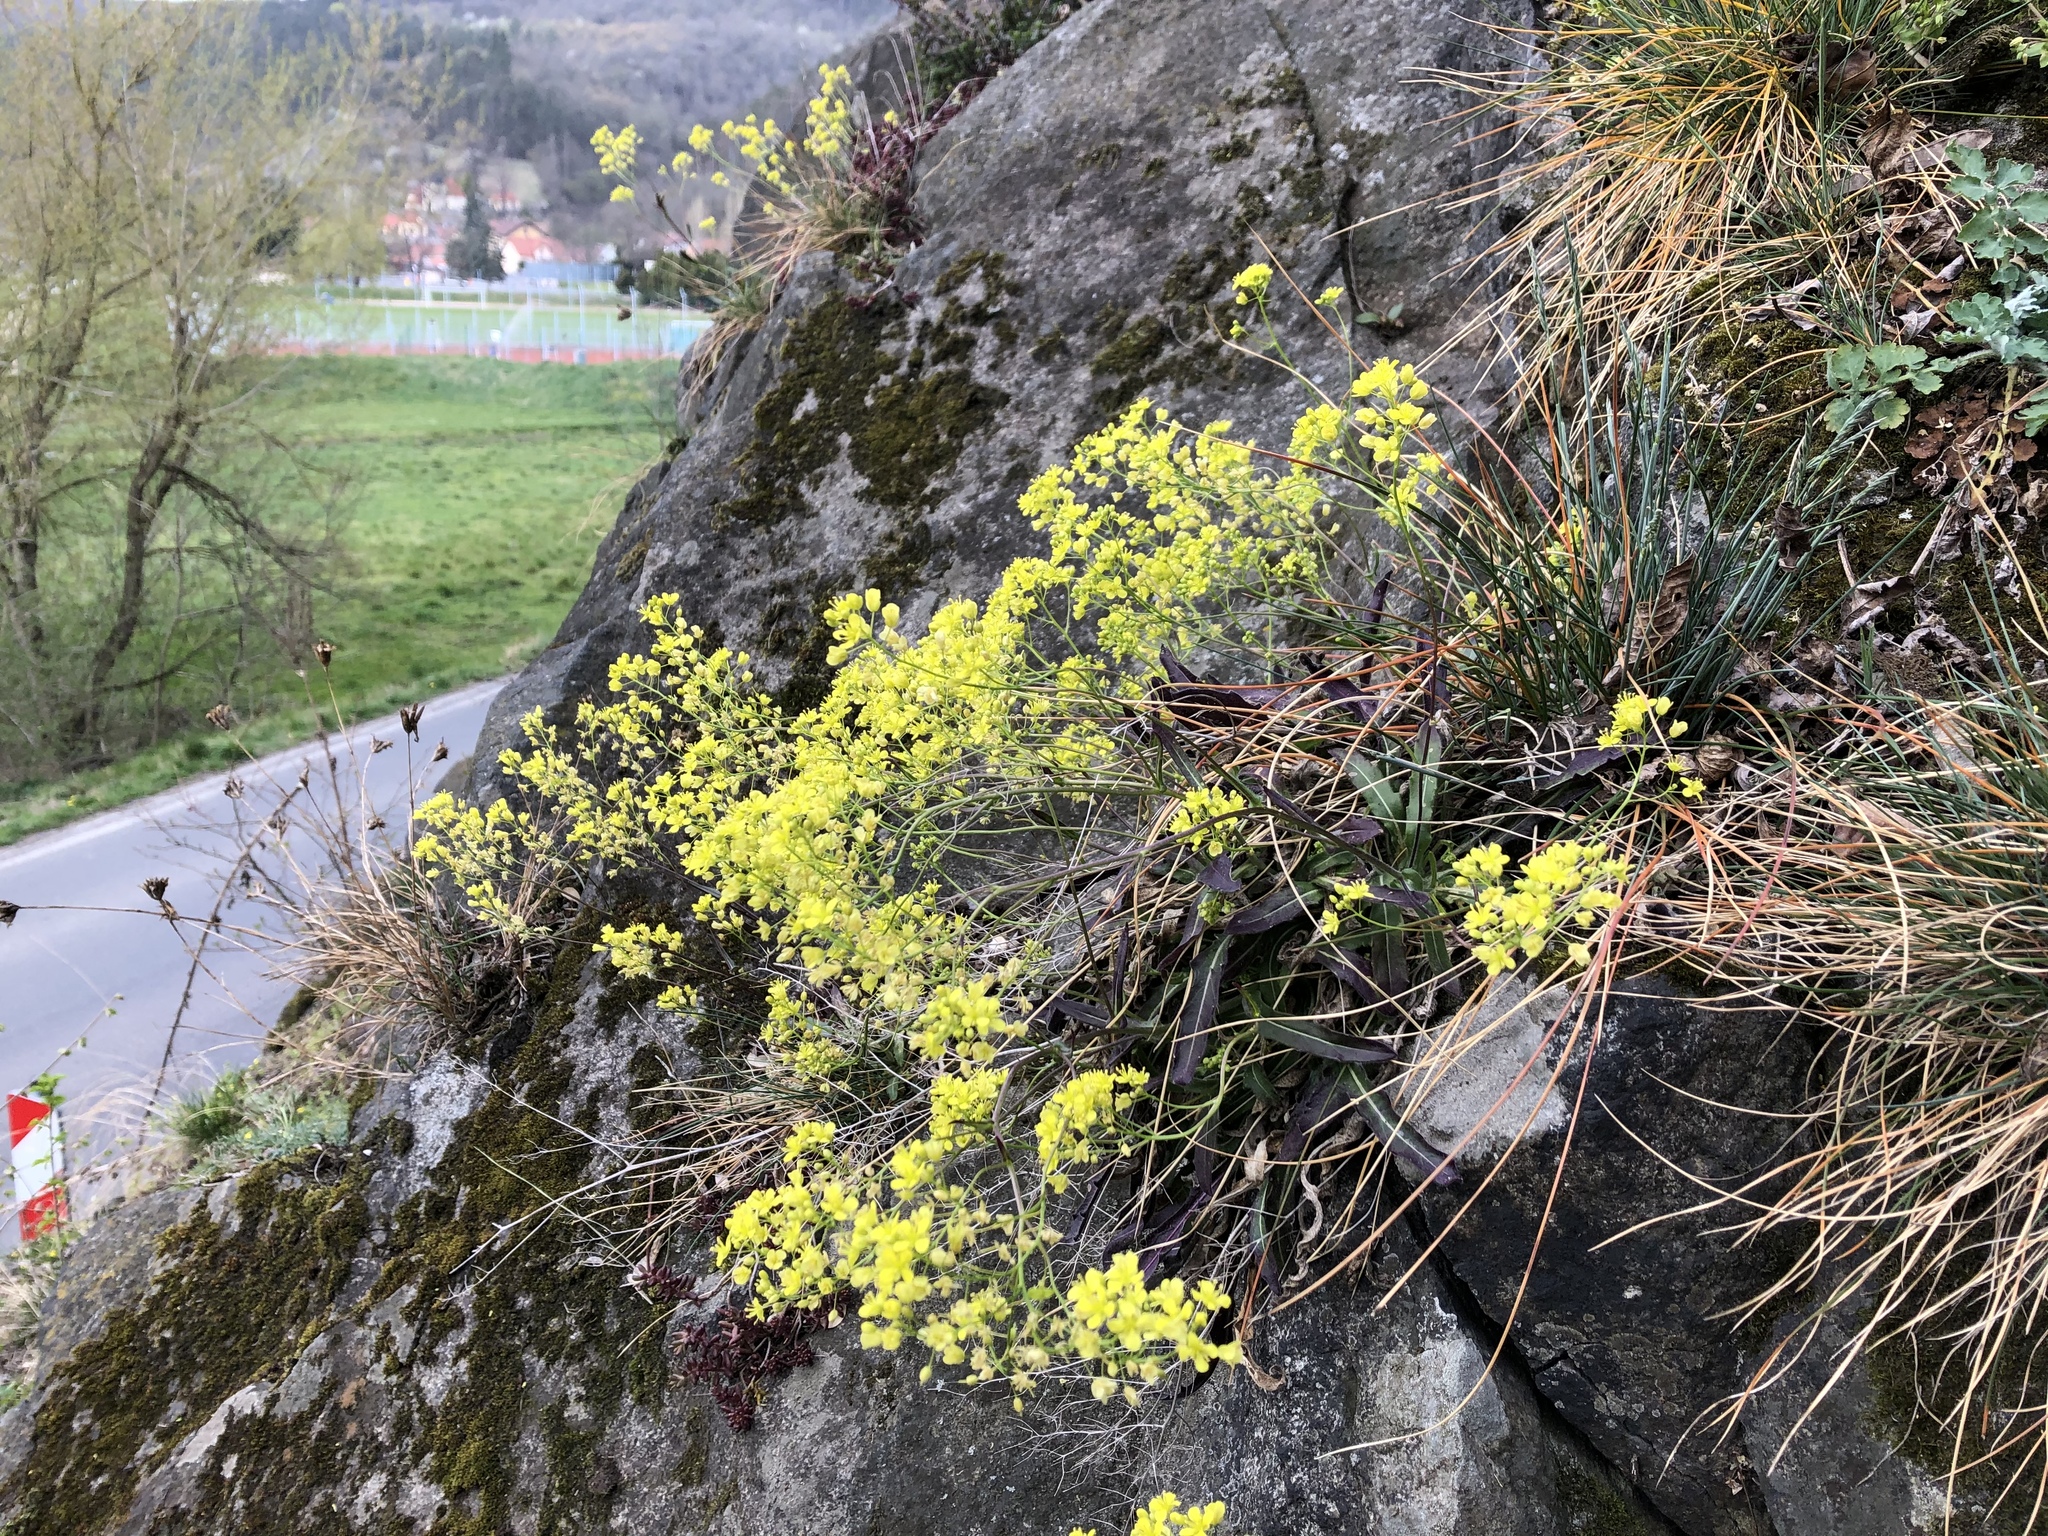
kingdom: Plantae
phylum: Tracheophyta
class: Magnoliopsida
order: Brassicales
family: Brassicaceae
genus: Biscutella
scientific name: Biscutella laevigata
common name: Buckler mustard
